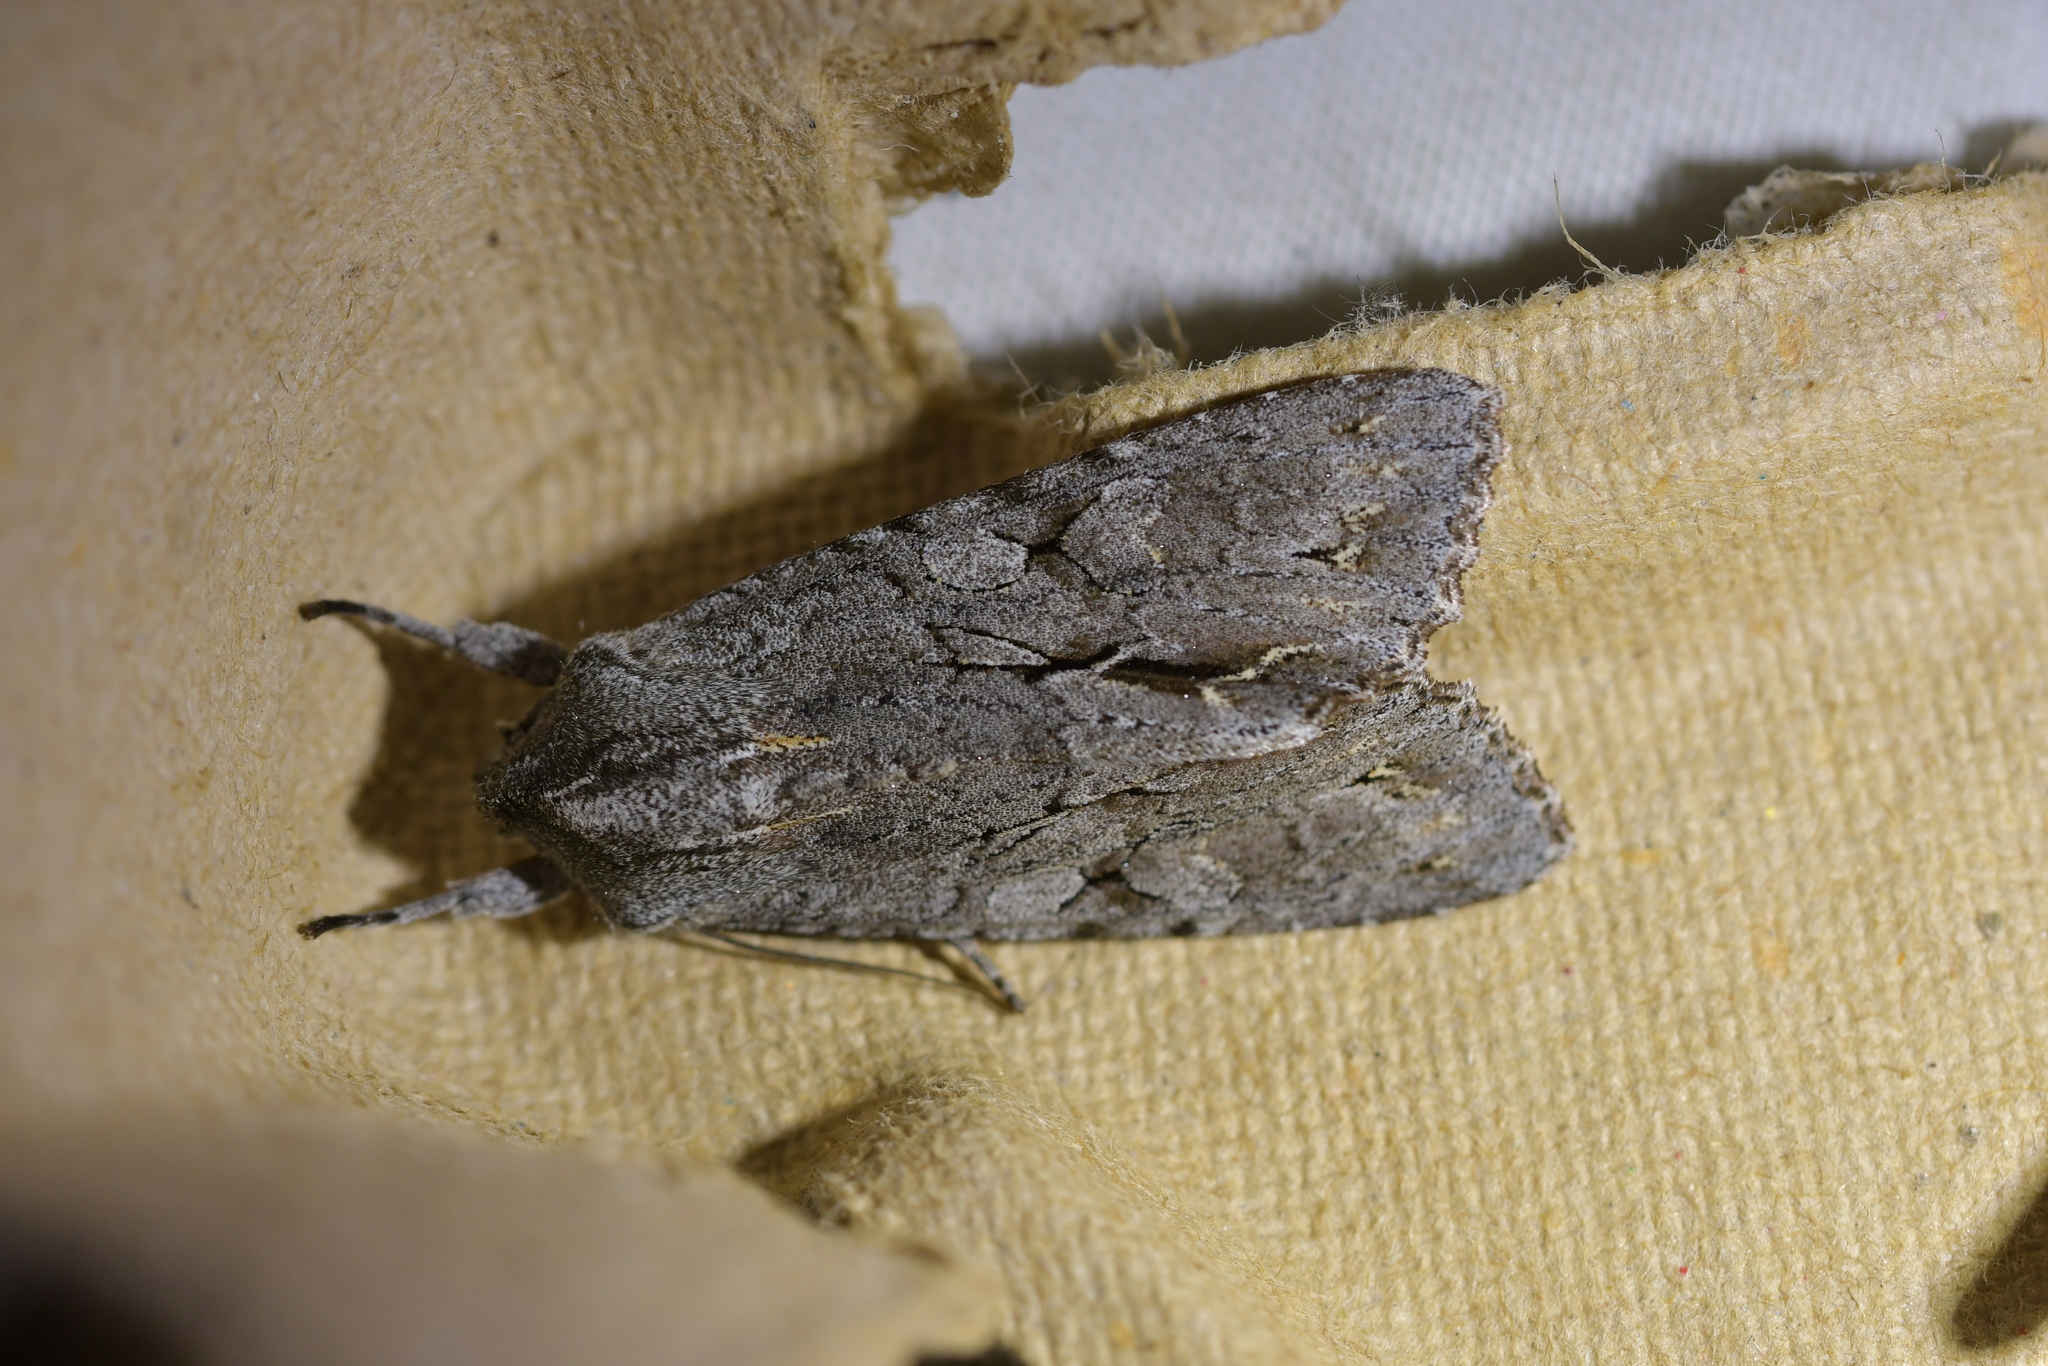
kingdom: Animalia
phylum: Arthropoda
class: Insecta
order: Lepidoptera
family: Noctuidae
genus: Ichneutica
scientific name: Ichneutica
